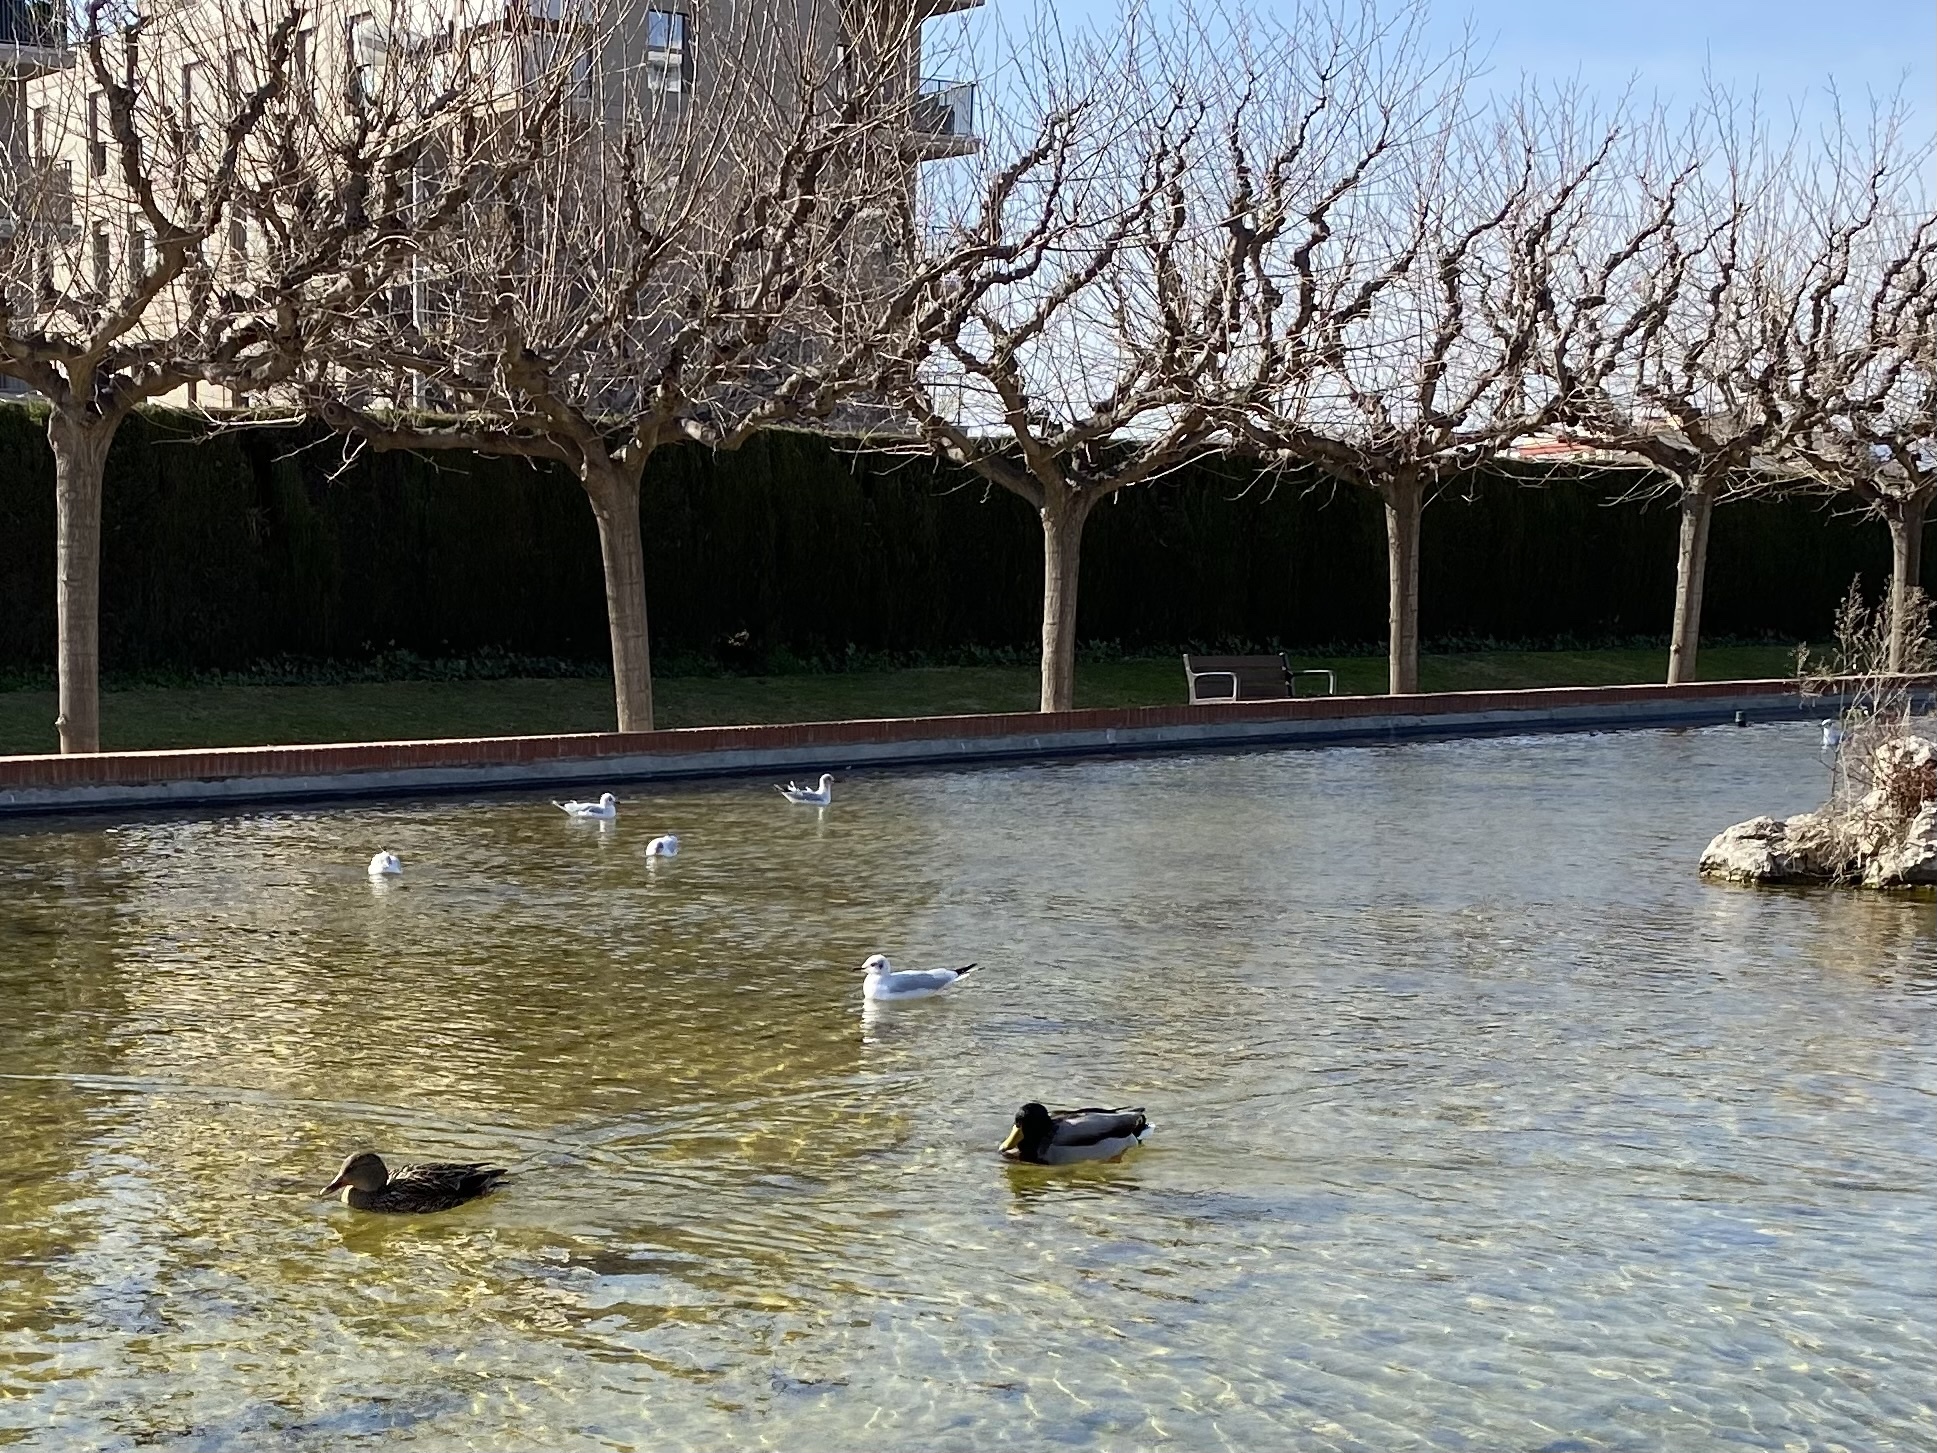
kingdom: Animalia
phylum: Chordata
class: Aves
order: Anseriformes
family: Anatidae
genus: Anas
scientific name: Anas platyrhynchos
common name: Mallard
